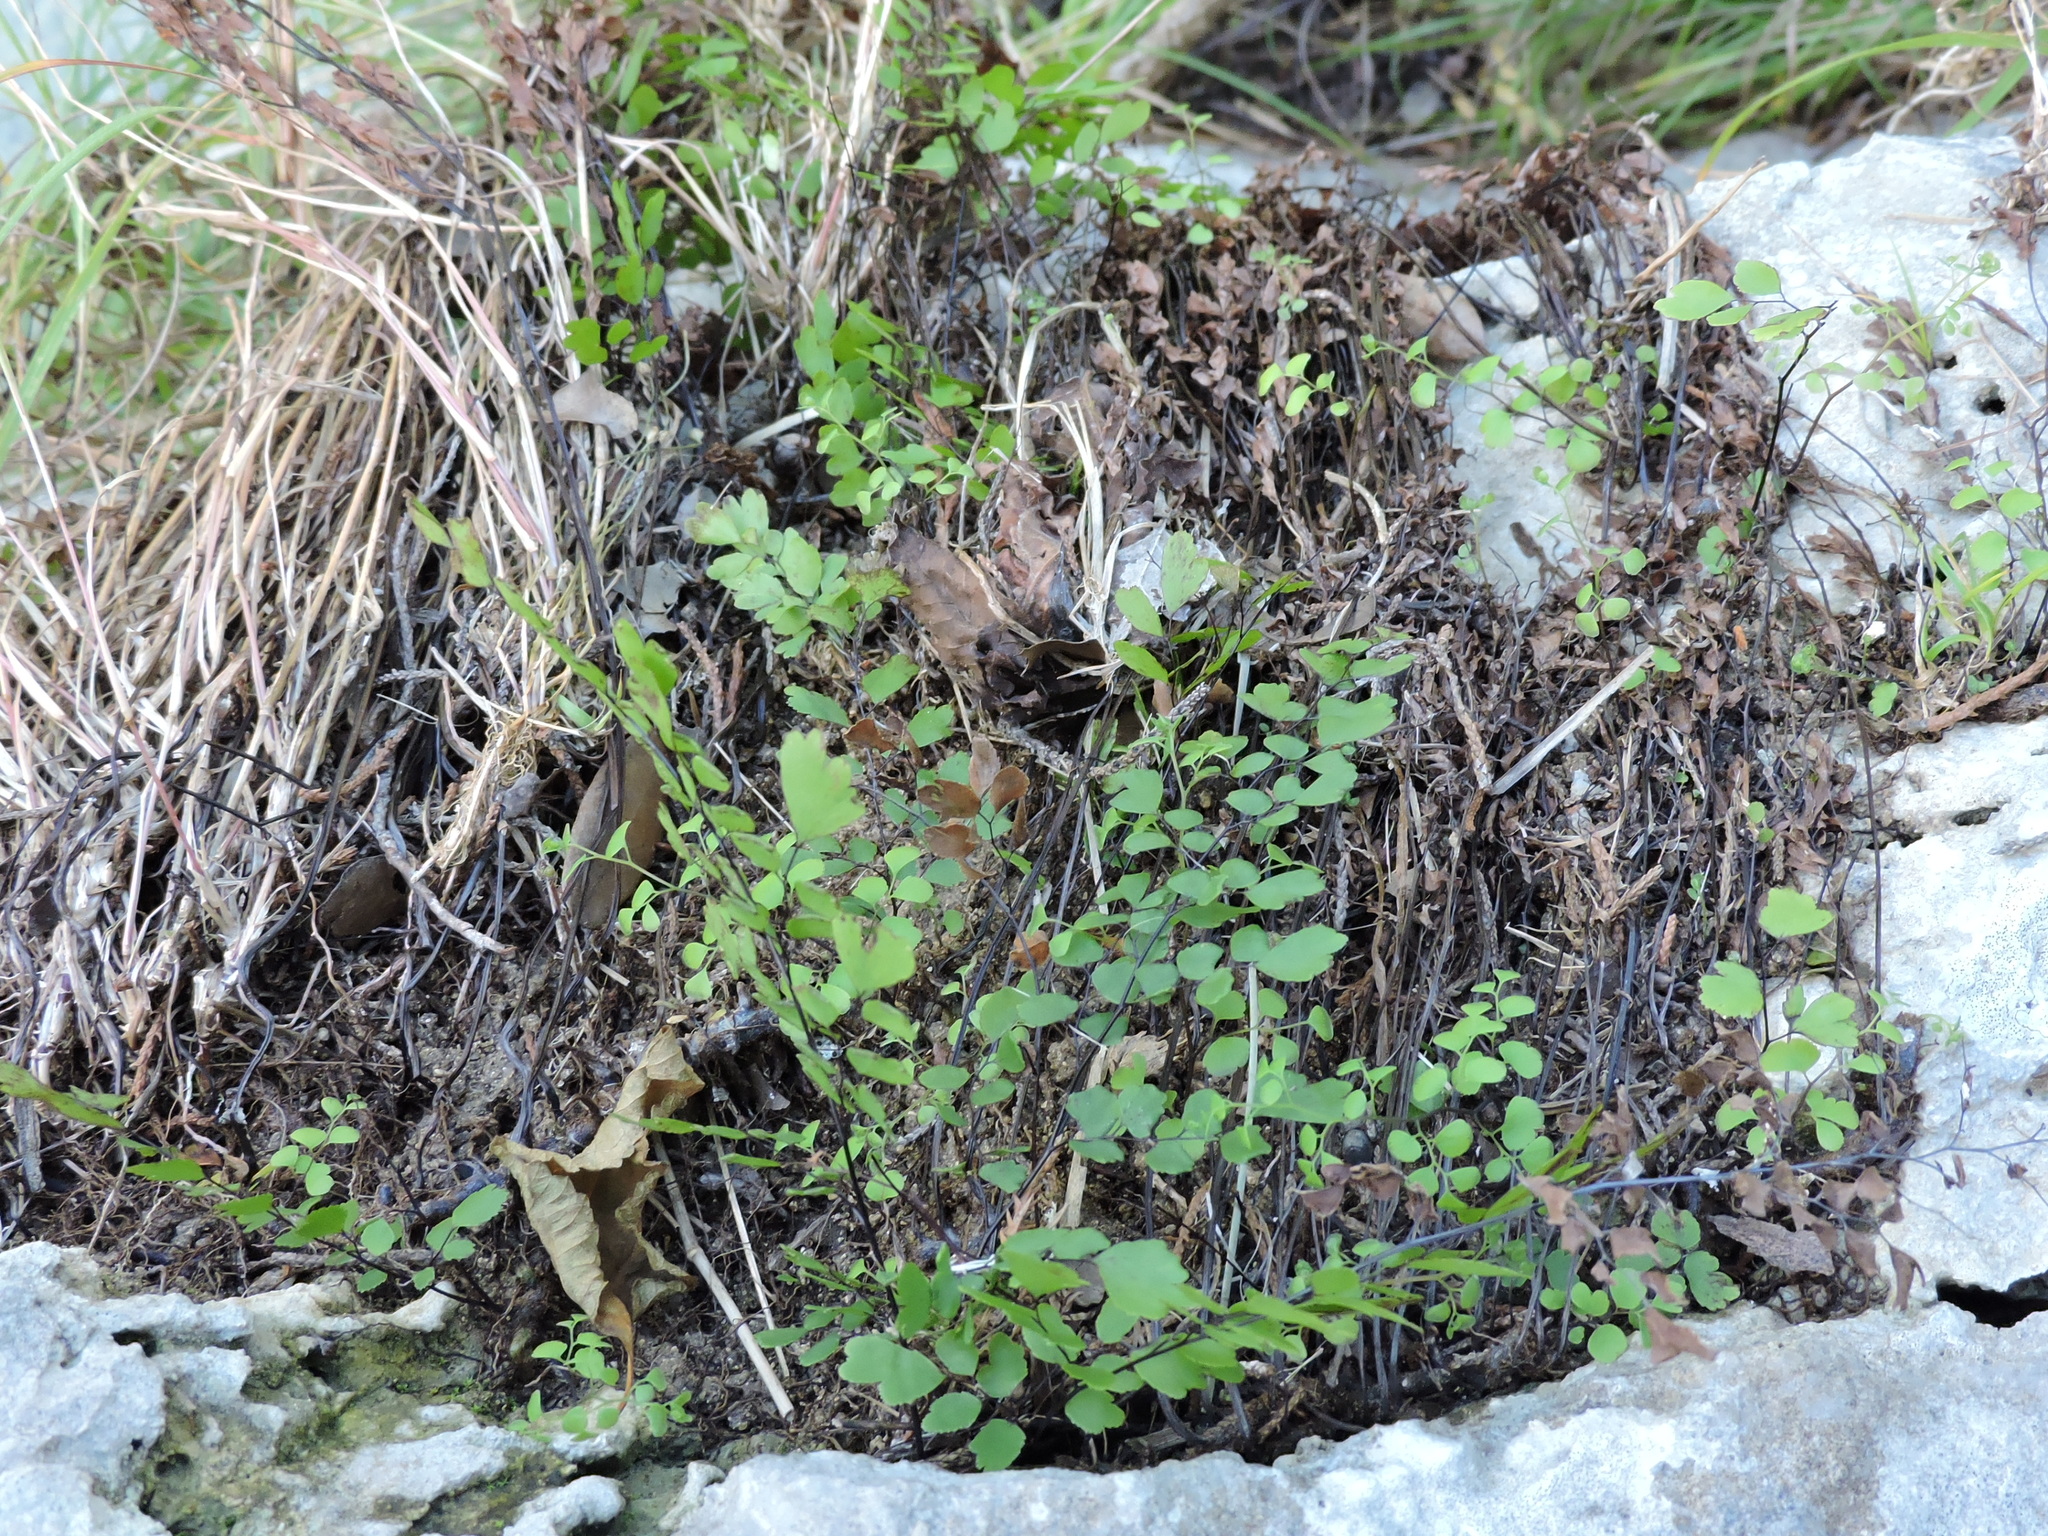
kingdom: Plantae
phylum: Tracheophyta
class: Polypodiopsida
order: Polypodiales
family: Pteridaceae
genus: Adiantum
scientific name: Adiantum capillus-veneris
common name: Maidenhair fern
